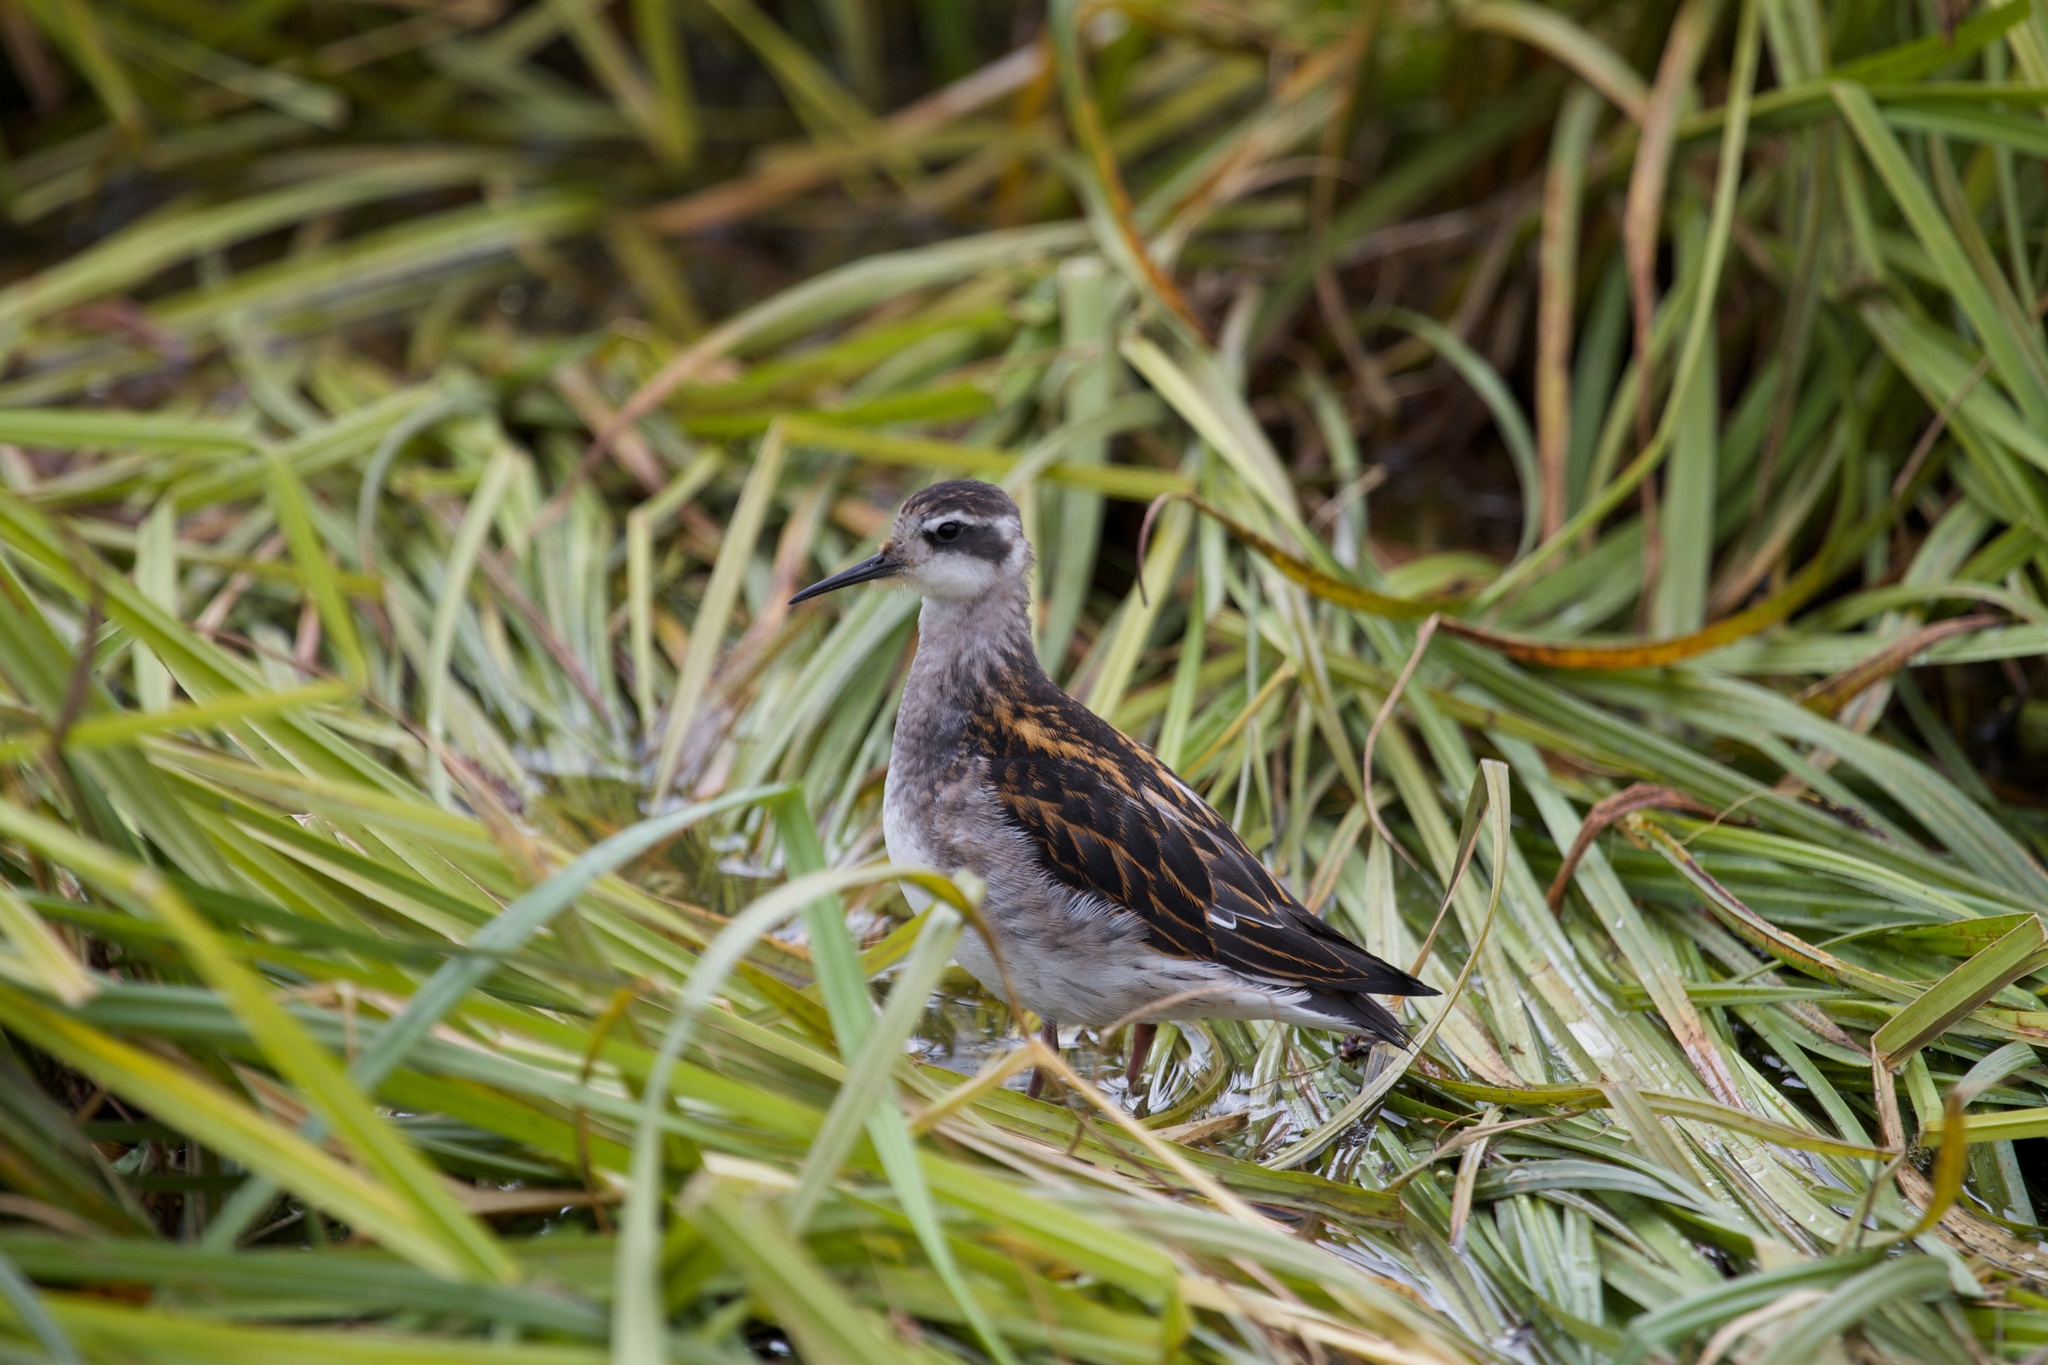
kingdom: Animalia
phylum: Chordata
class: Aves
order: Charadriiformes
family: Scolopacidae
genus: Phalaropus
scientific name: Phalaropus lobatus
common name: Red-necked phalarope
